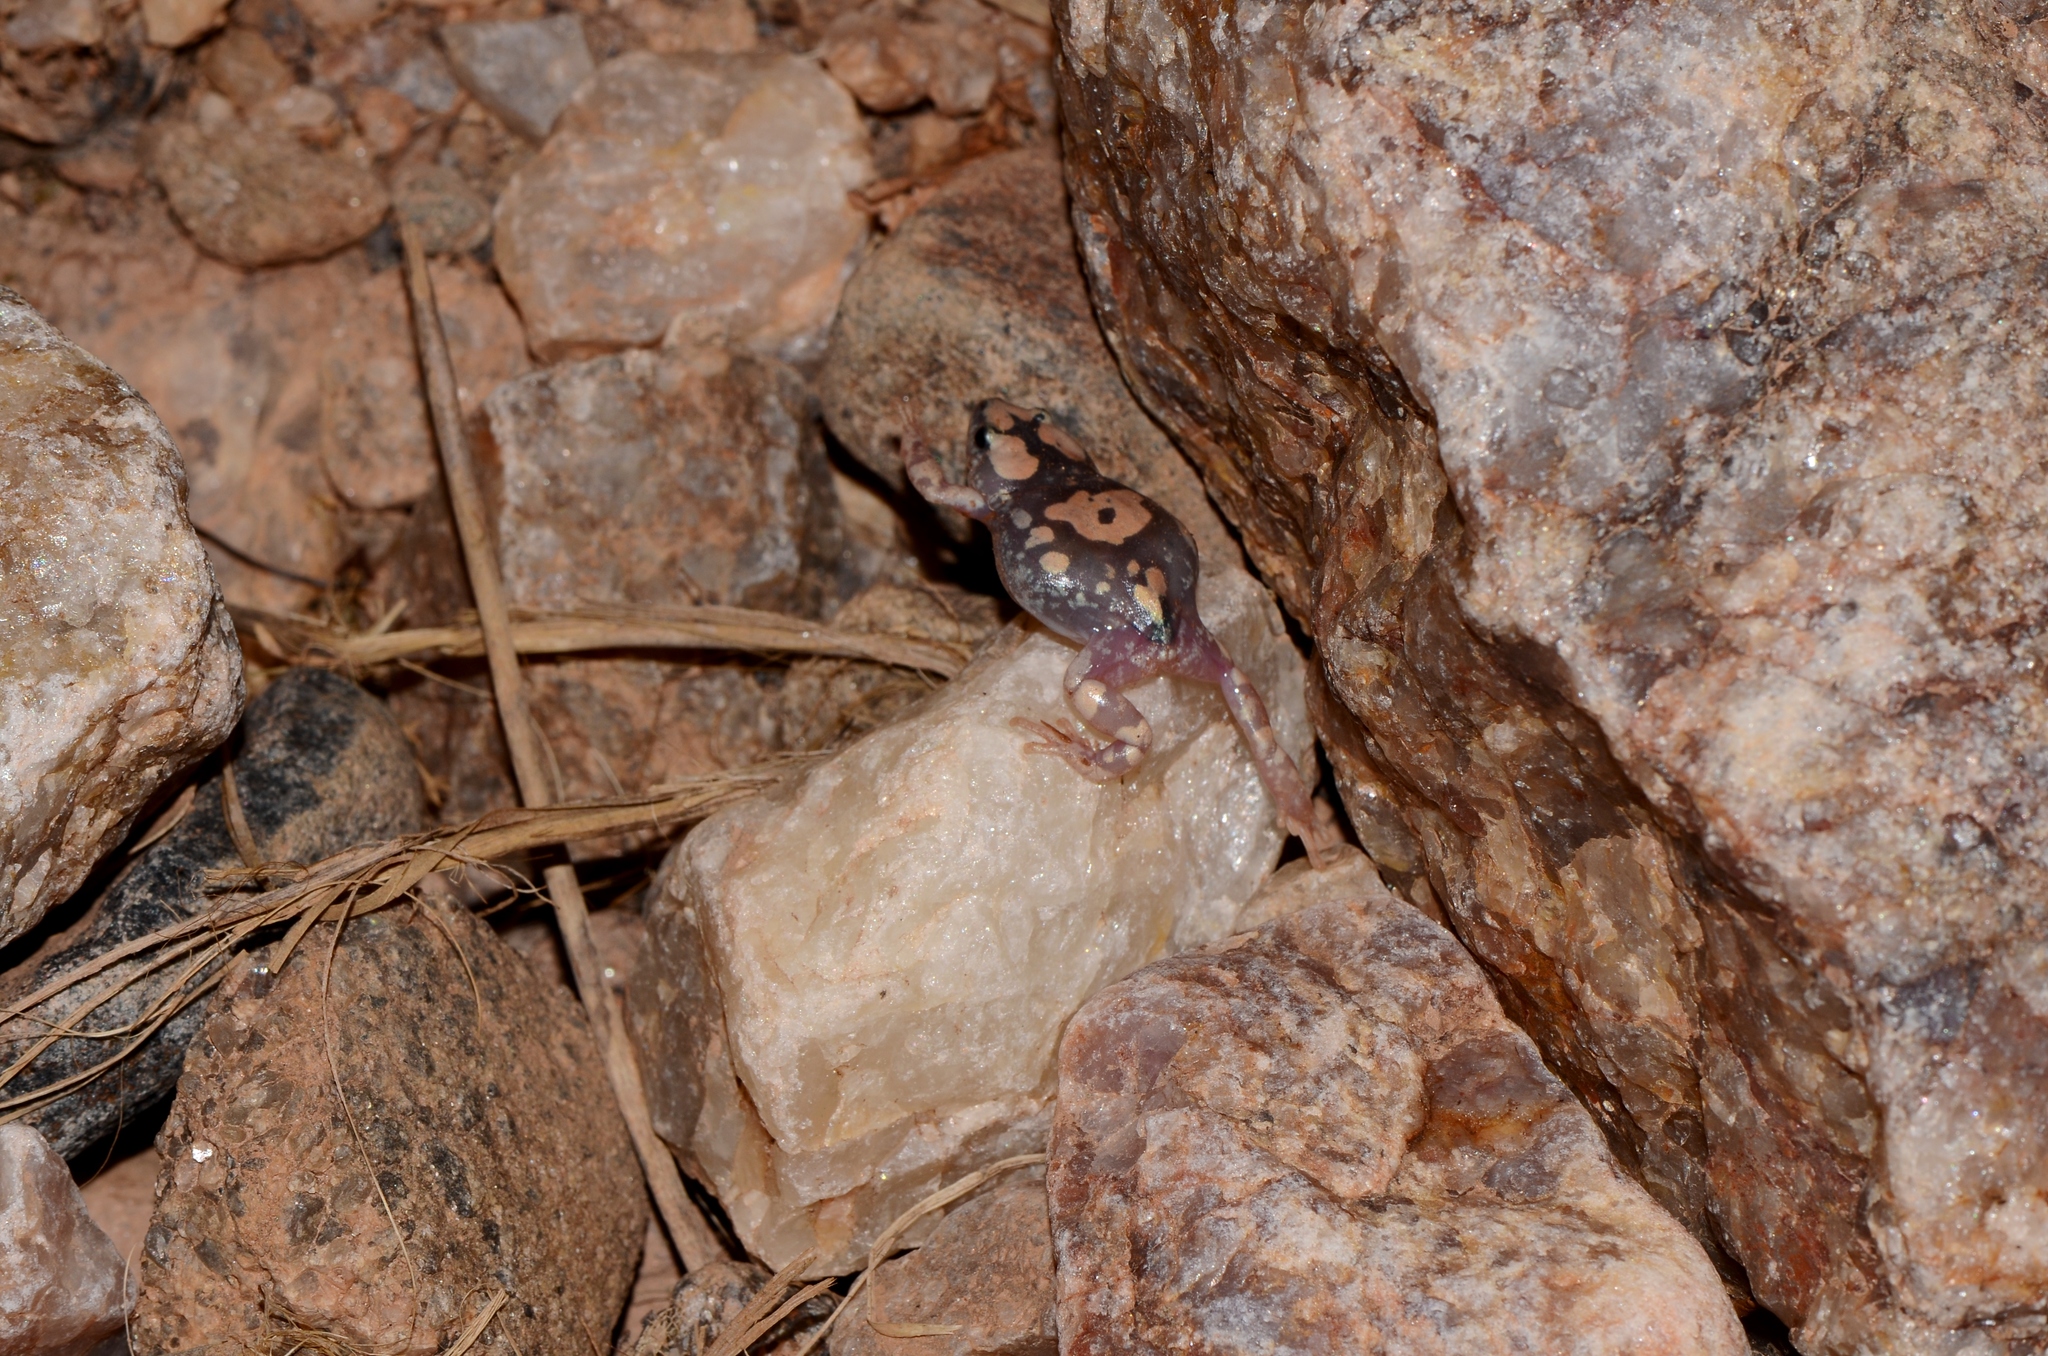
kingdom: Animalia
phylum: Chordata
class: Amphibia
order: Anura
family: Microhylidae
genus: Phrynomantis
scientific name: Phrynomantis annectens
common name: Marbled rubber frog
